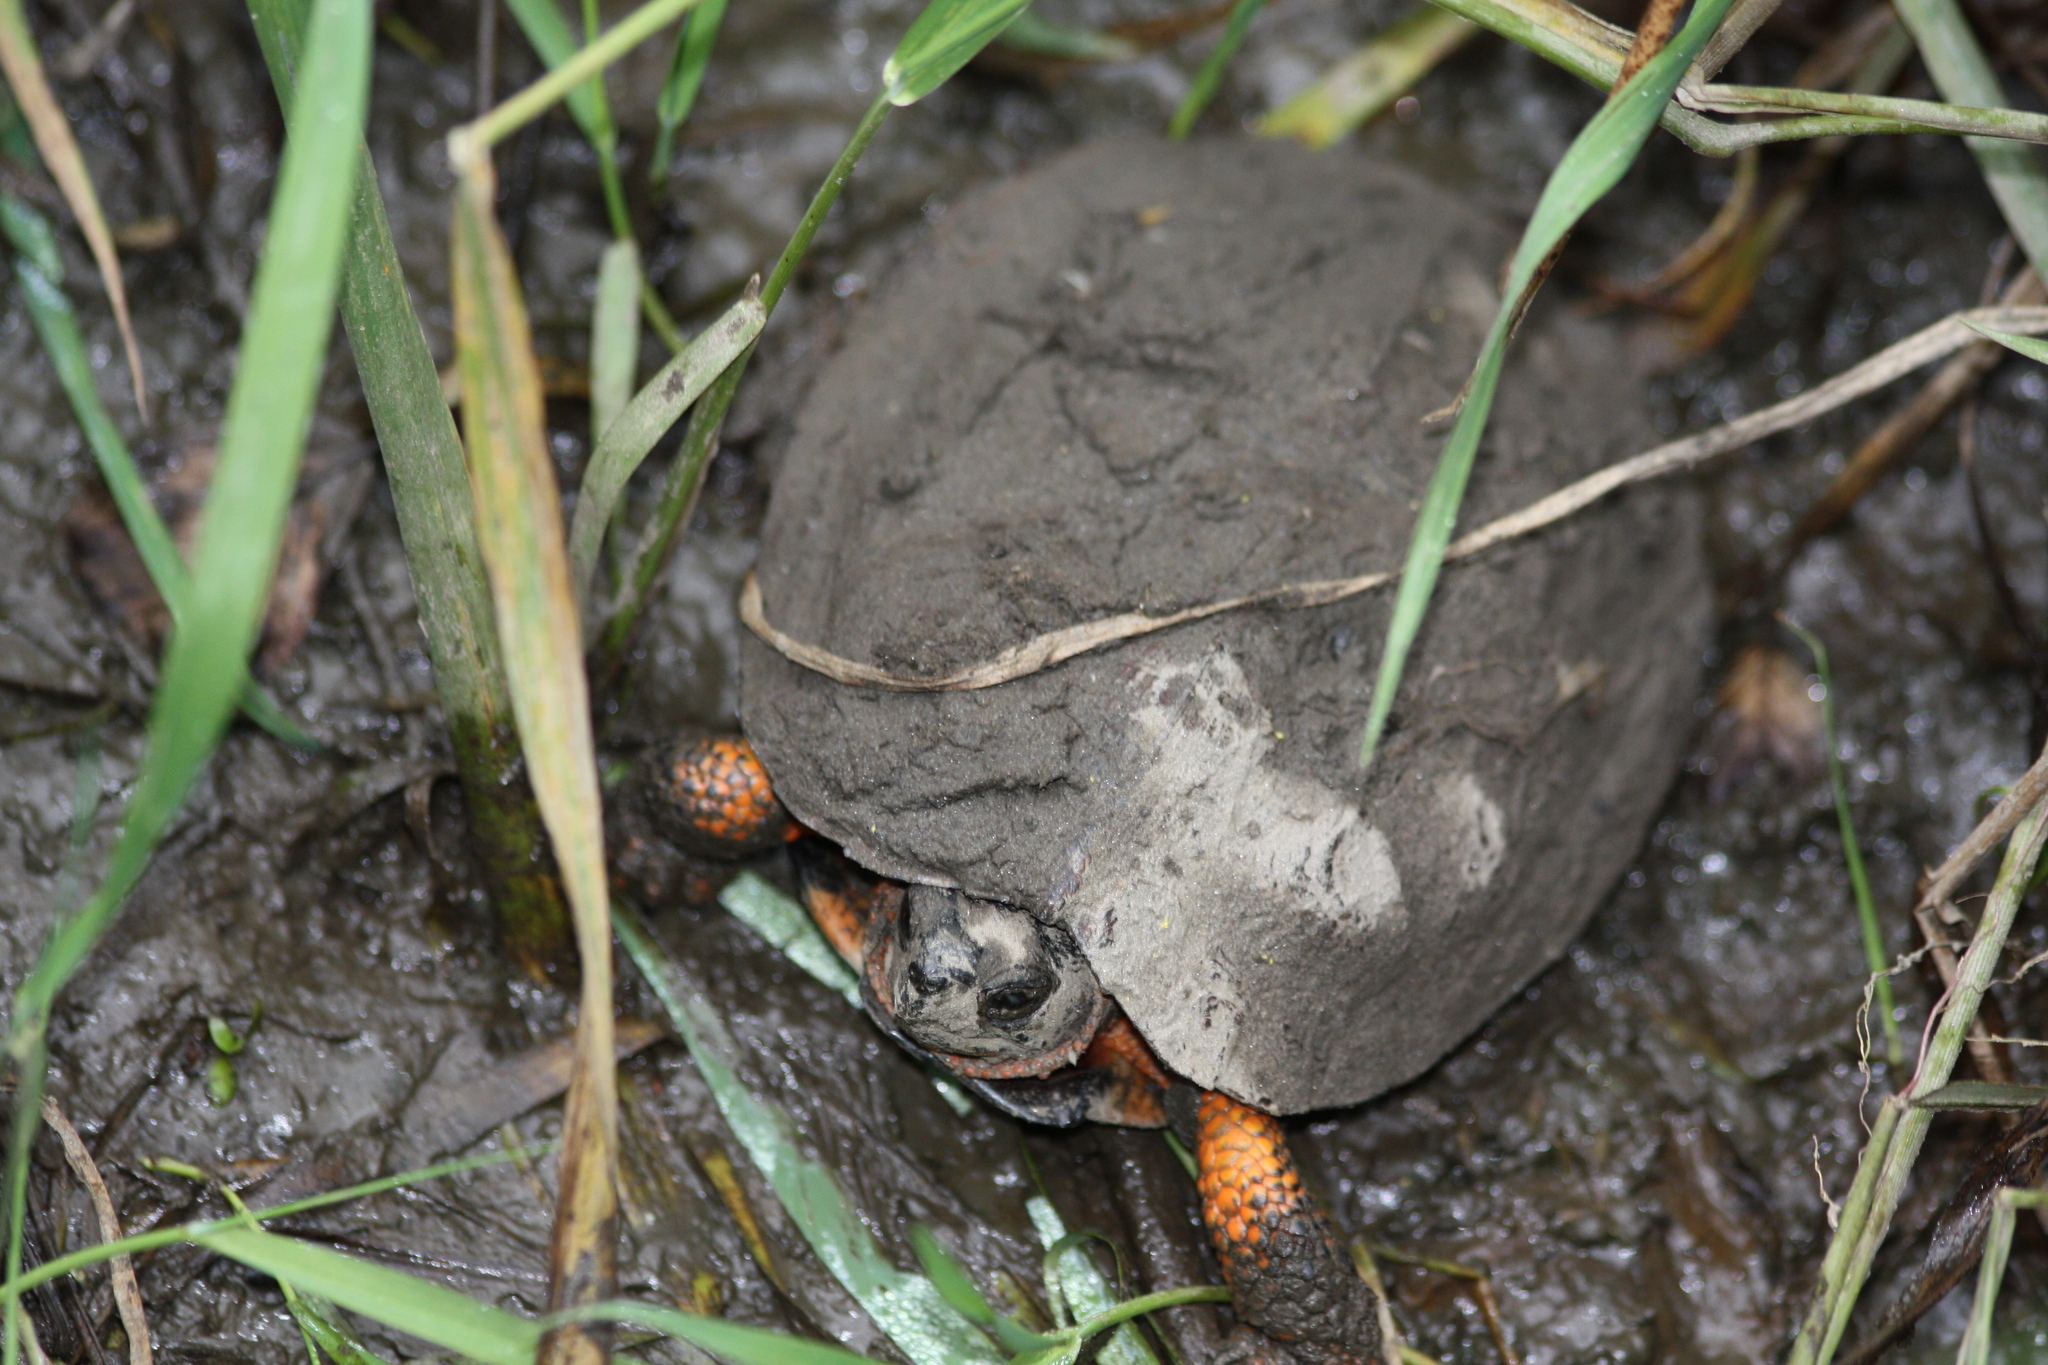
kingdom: Animalia
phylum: Chordata
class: Testudines
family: Emydidae
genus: Glyptemys
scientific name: Glyptemys insculpta
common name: Wood turtle
